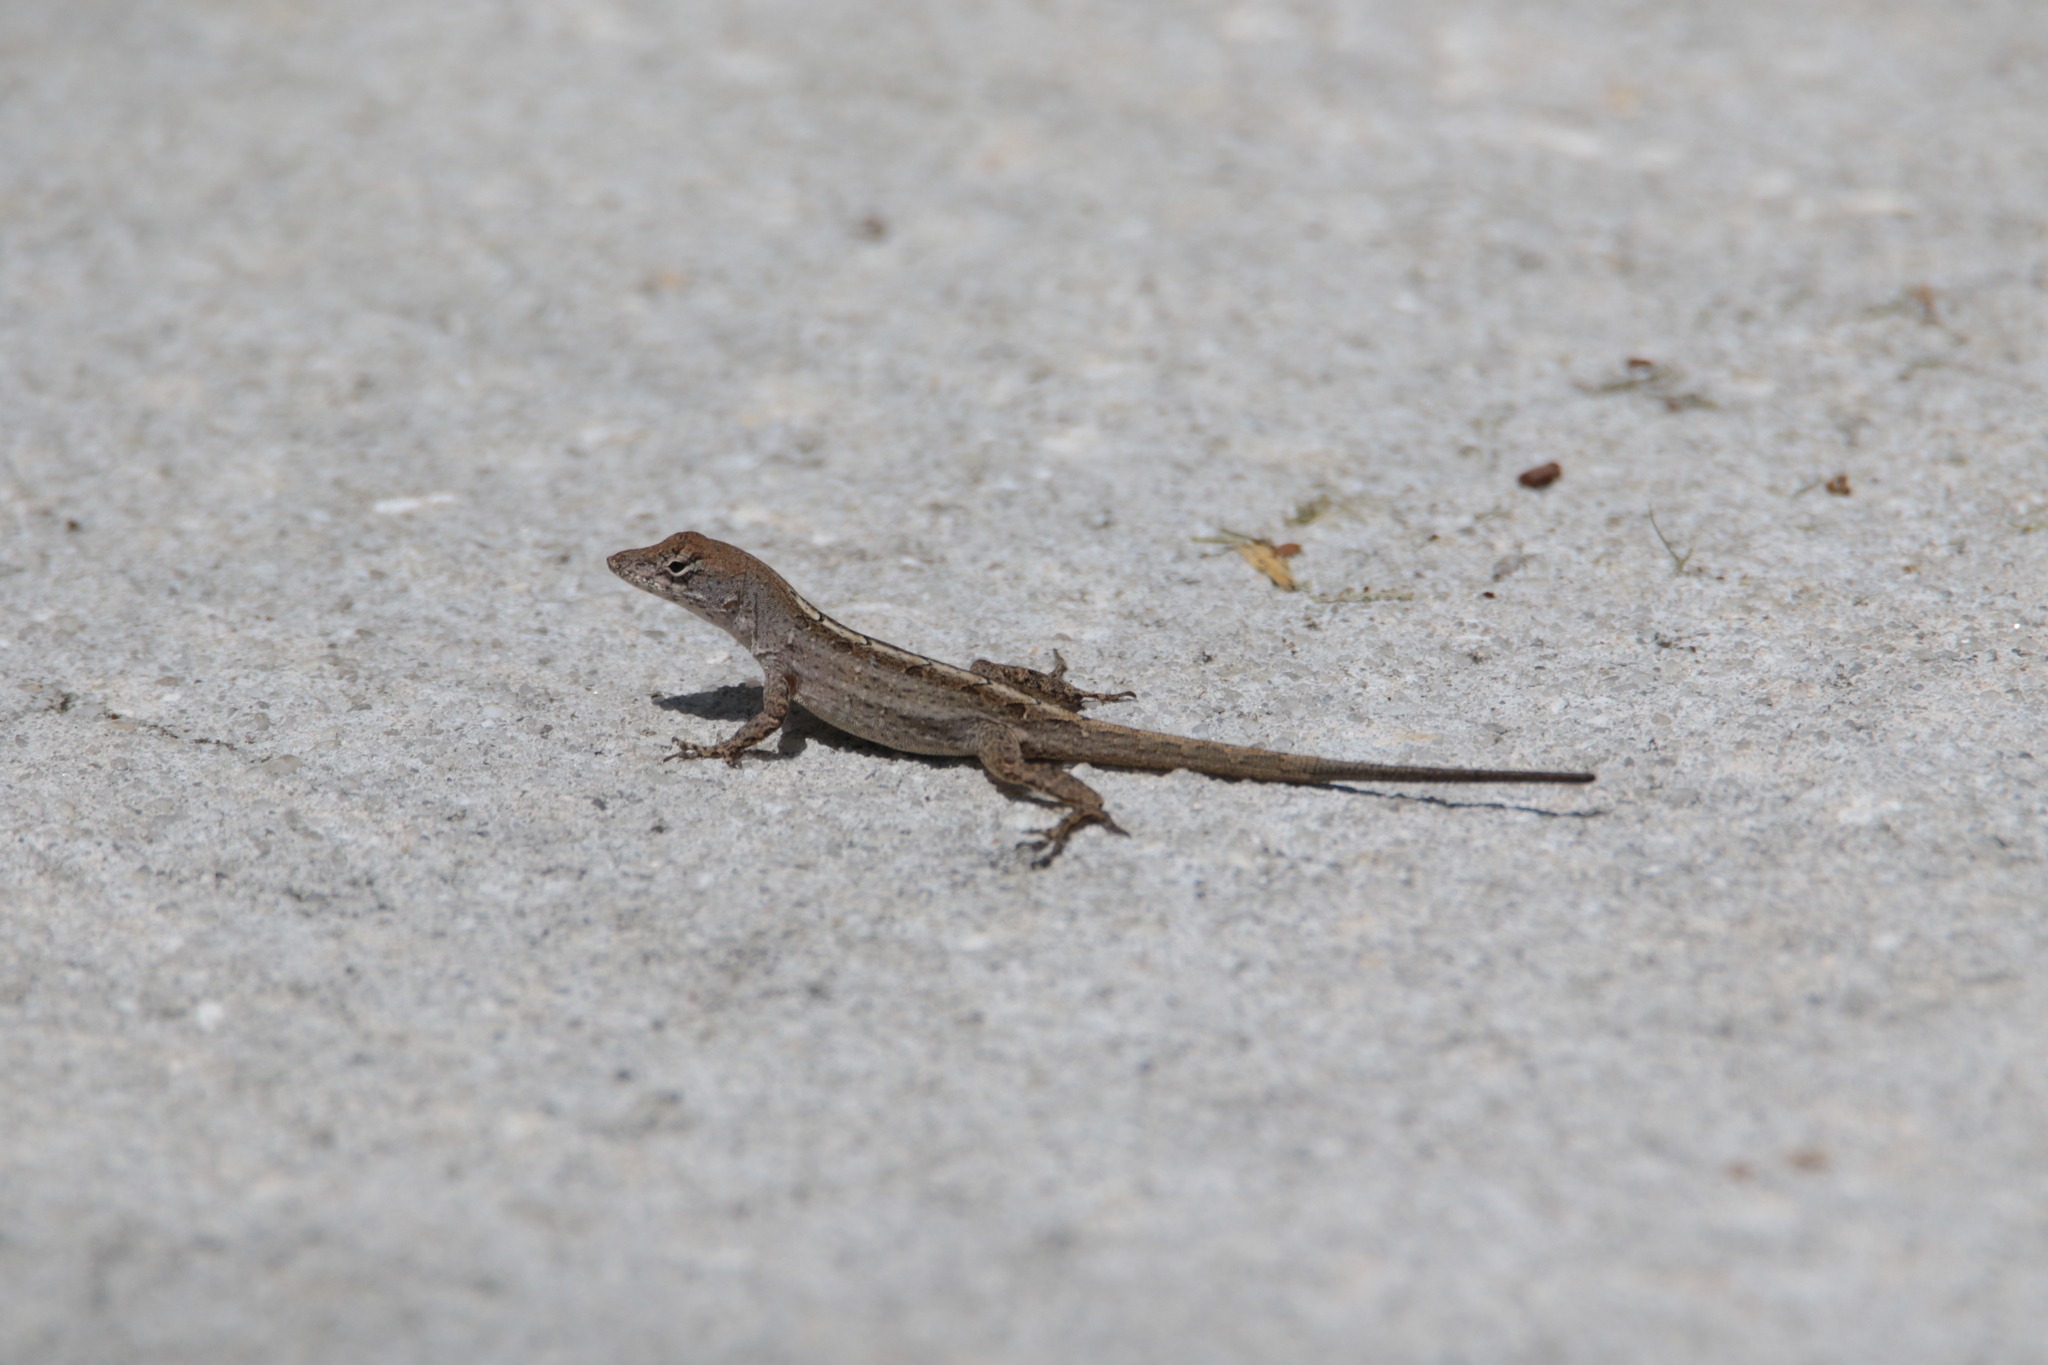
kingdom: Animalia
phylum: Chordata
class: Squamata
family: Dactyloidae
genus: Anolis
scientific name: Anolis sagrei
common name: Brown anole
